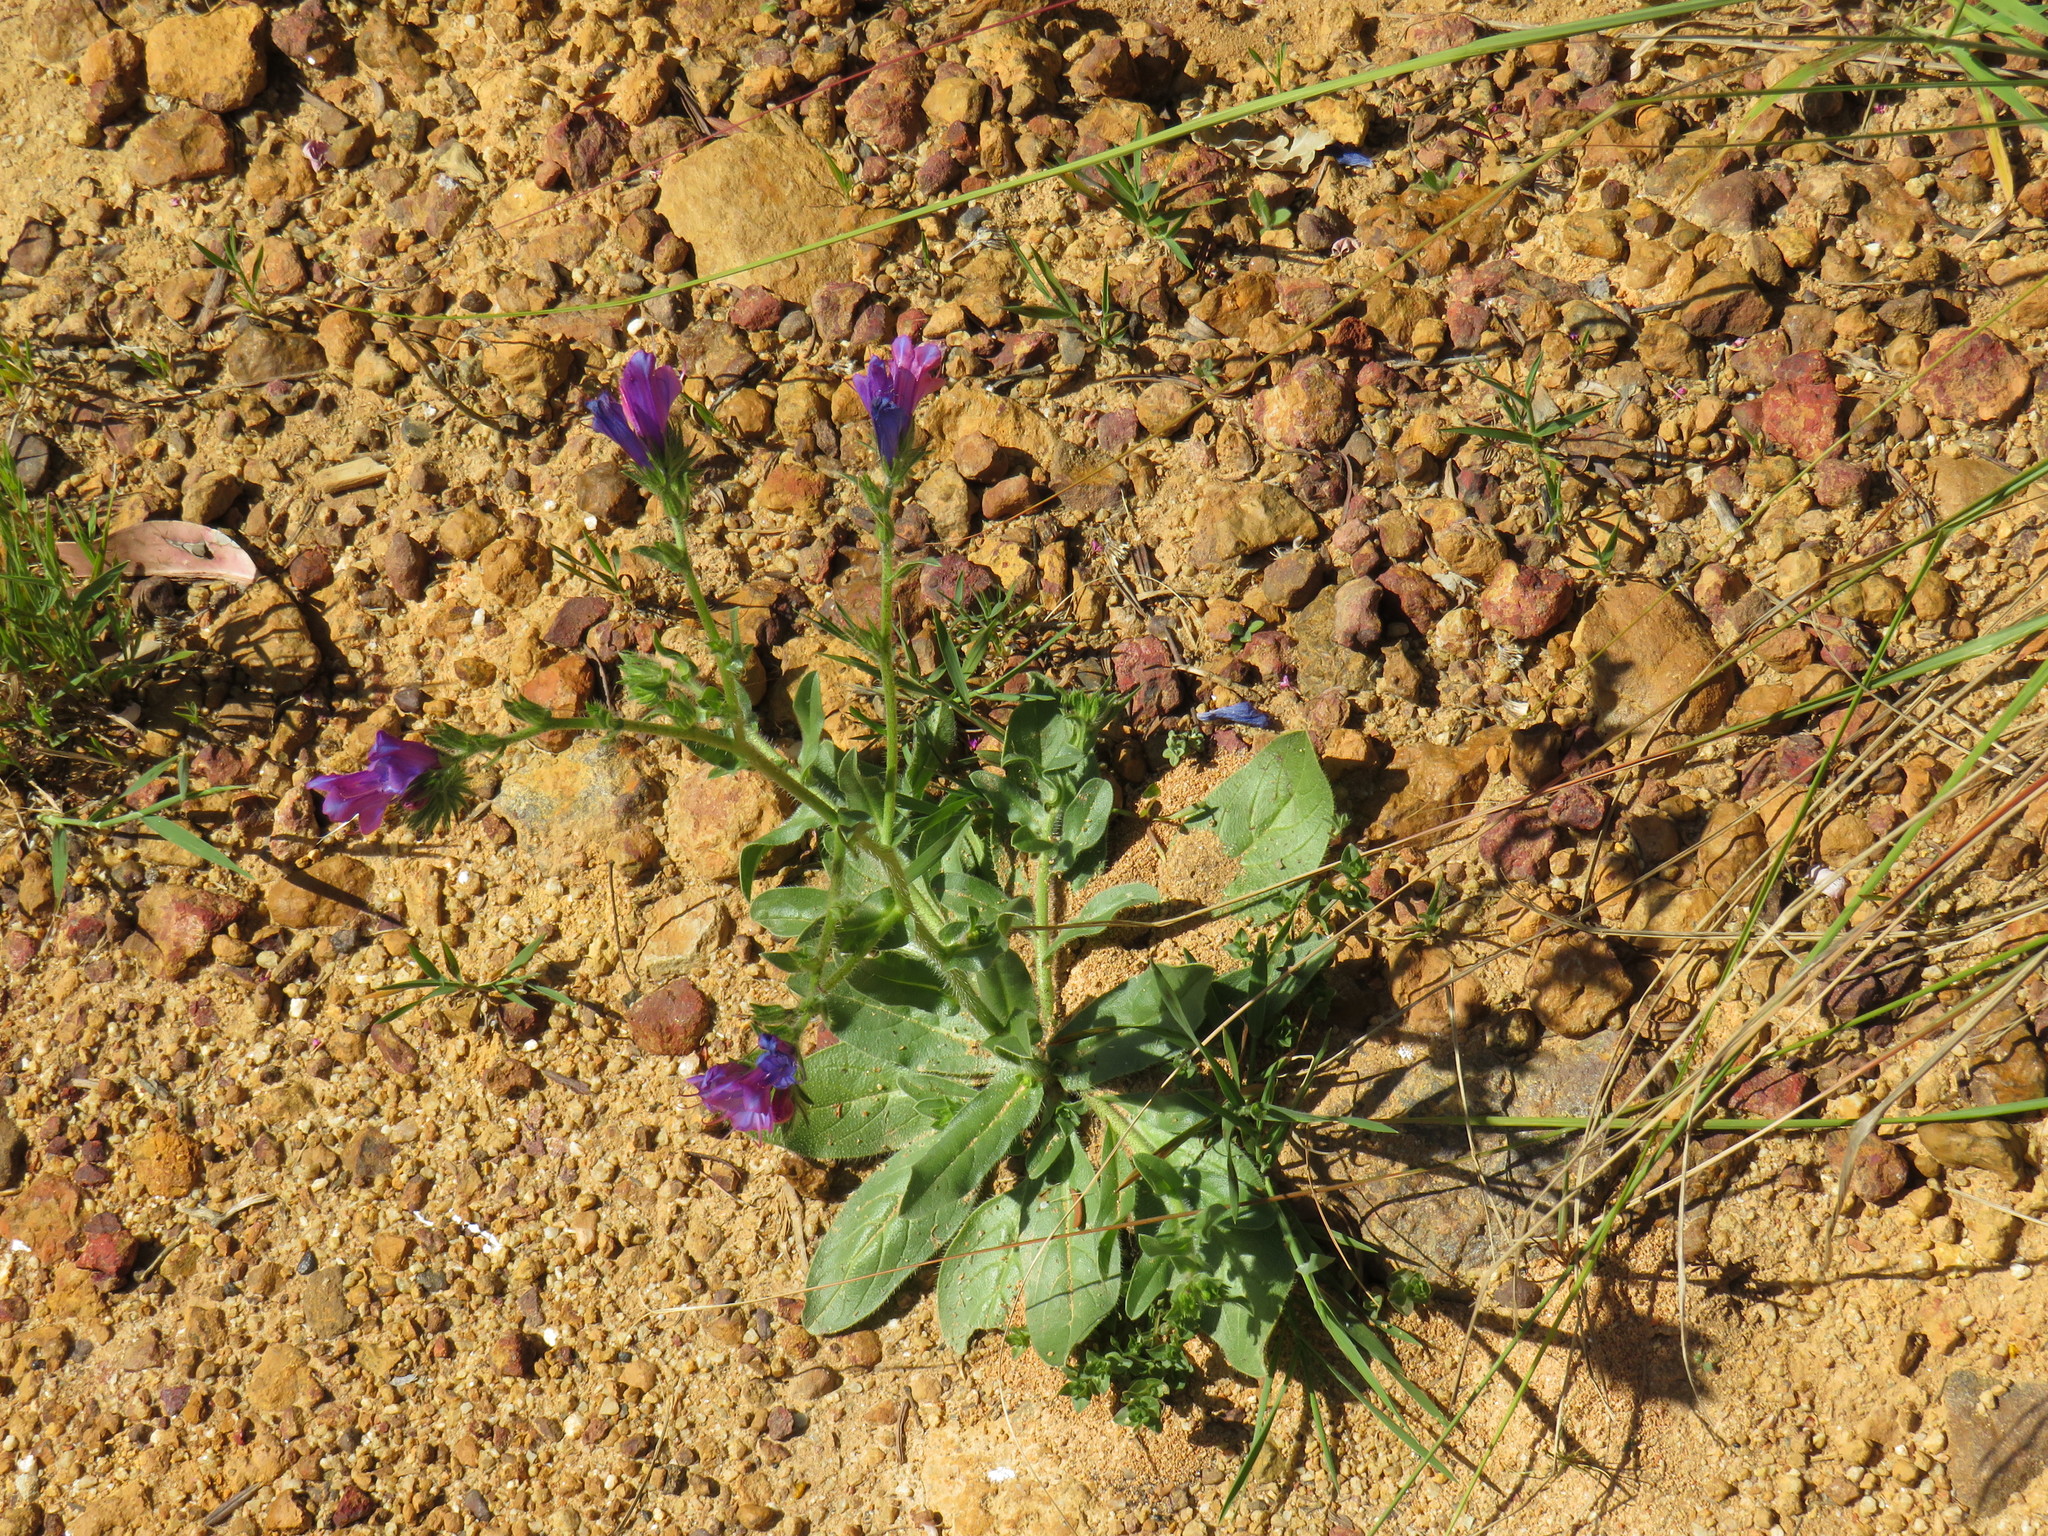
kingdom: Plantae
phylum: Tracheophyta
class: Magnoliopsida
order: Boraginales
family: Boraginaceae
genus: Echium
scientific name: Echium plantagineum
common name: Purple viper's-bugloss
